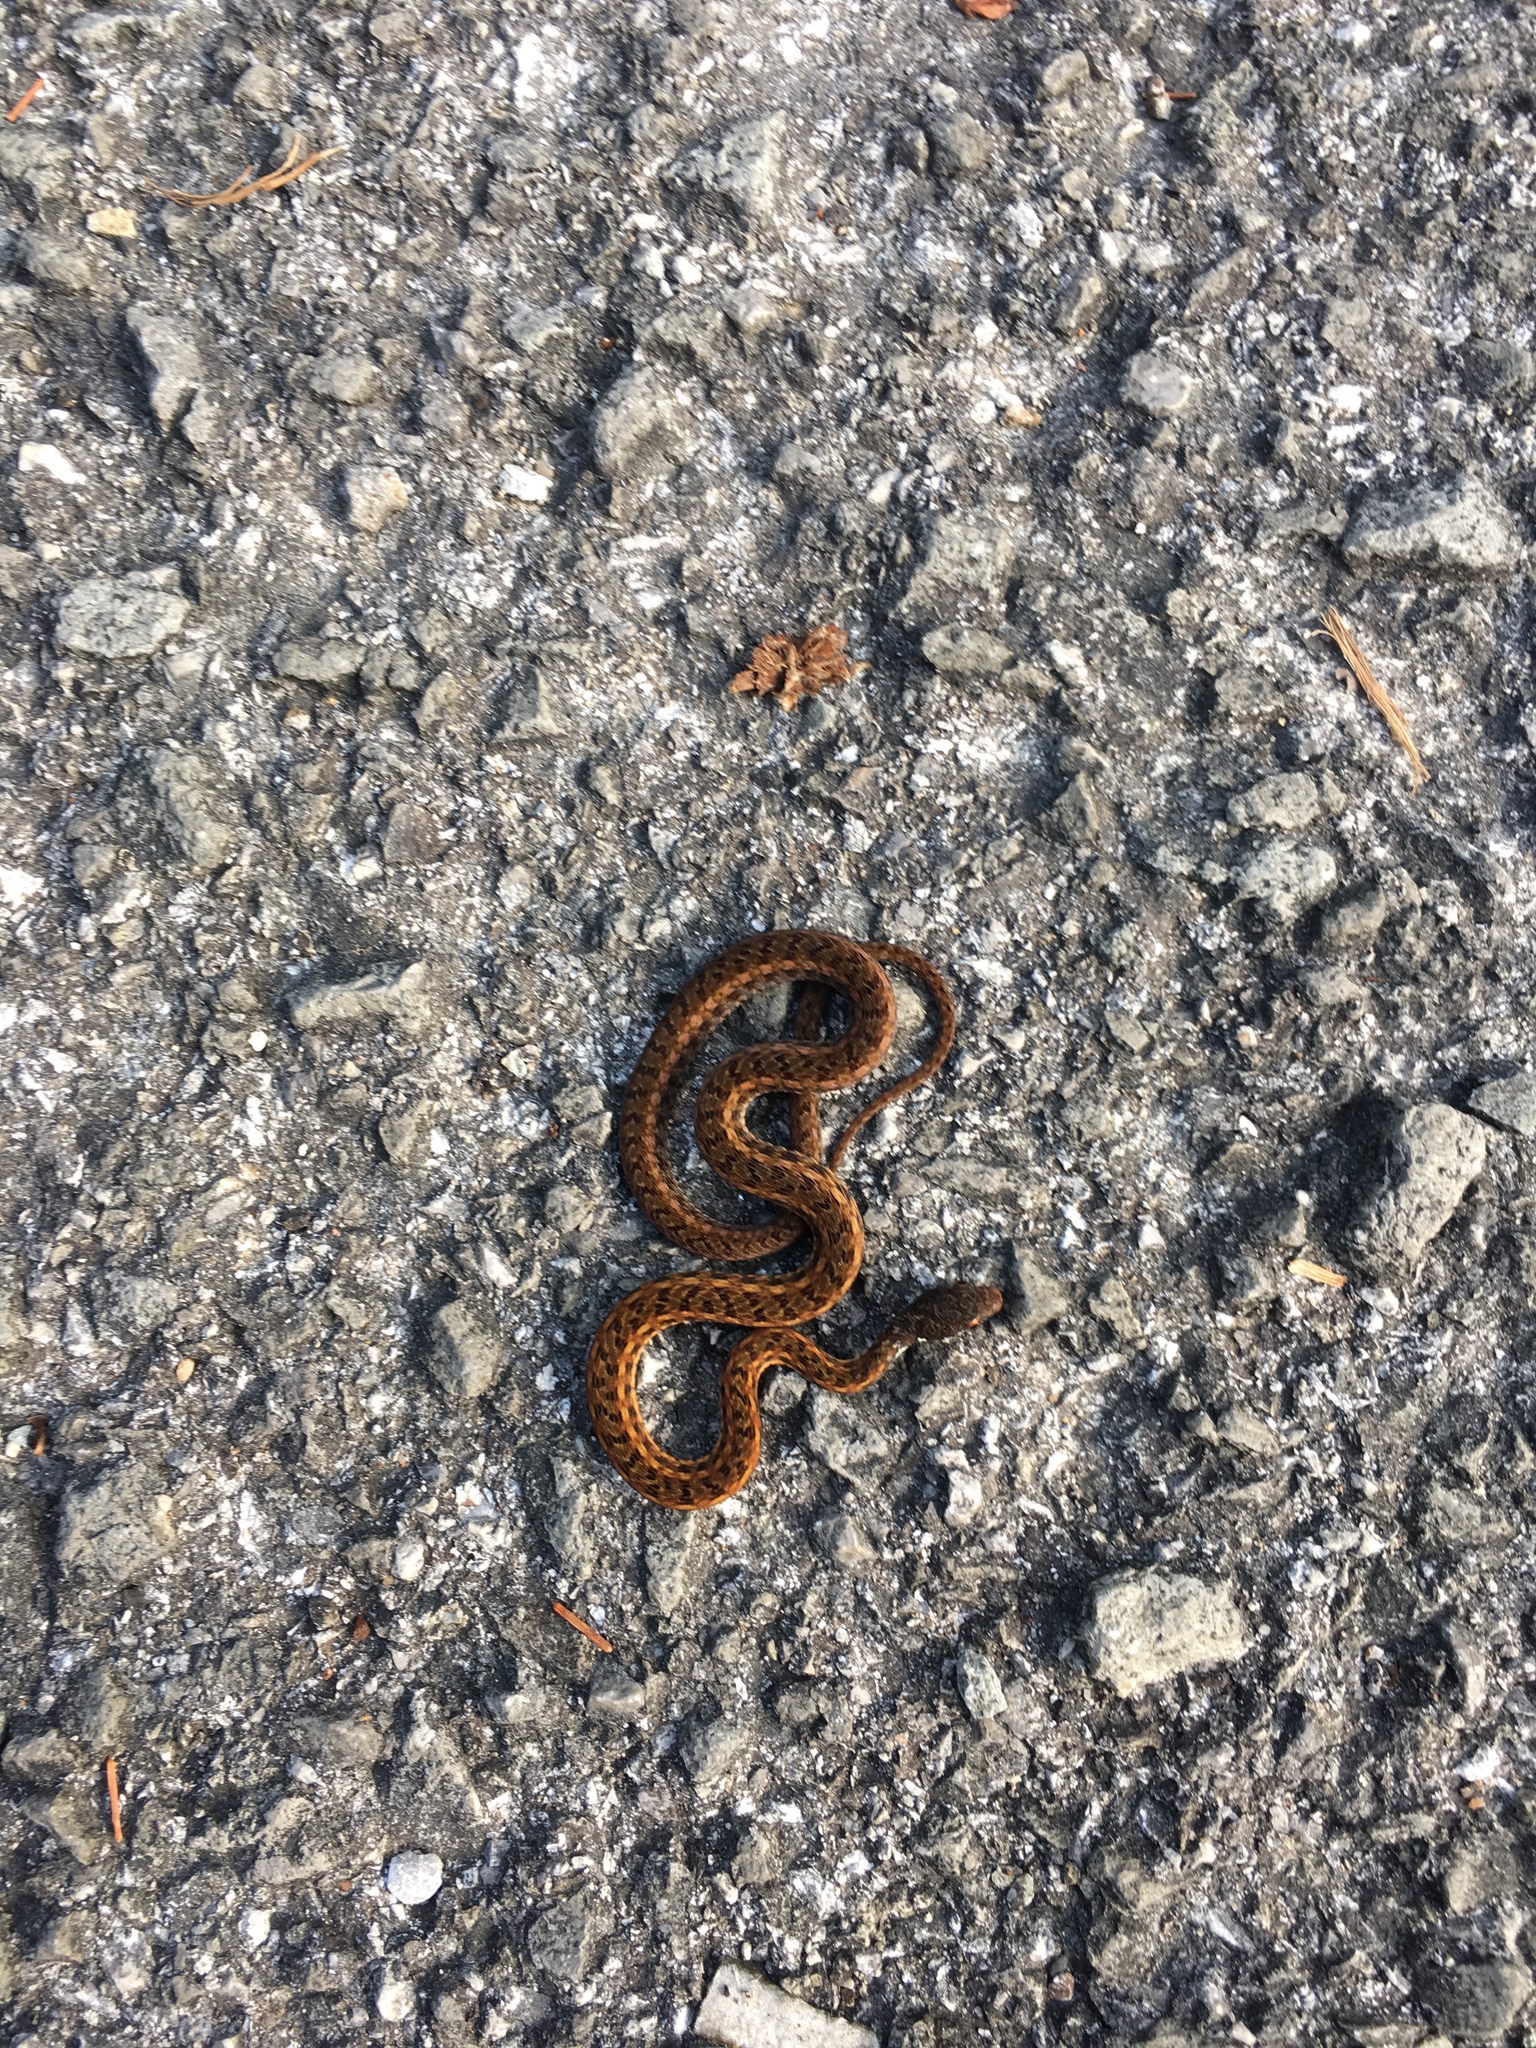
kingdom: Animalia
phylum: Chordata
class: Squamata
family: Colubridae
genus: Hebius
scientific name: Hebius sarawacensis
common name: Sarawak keelback
